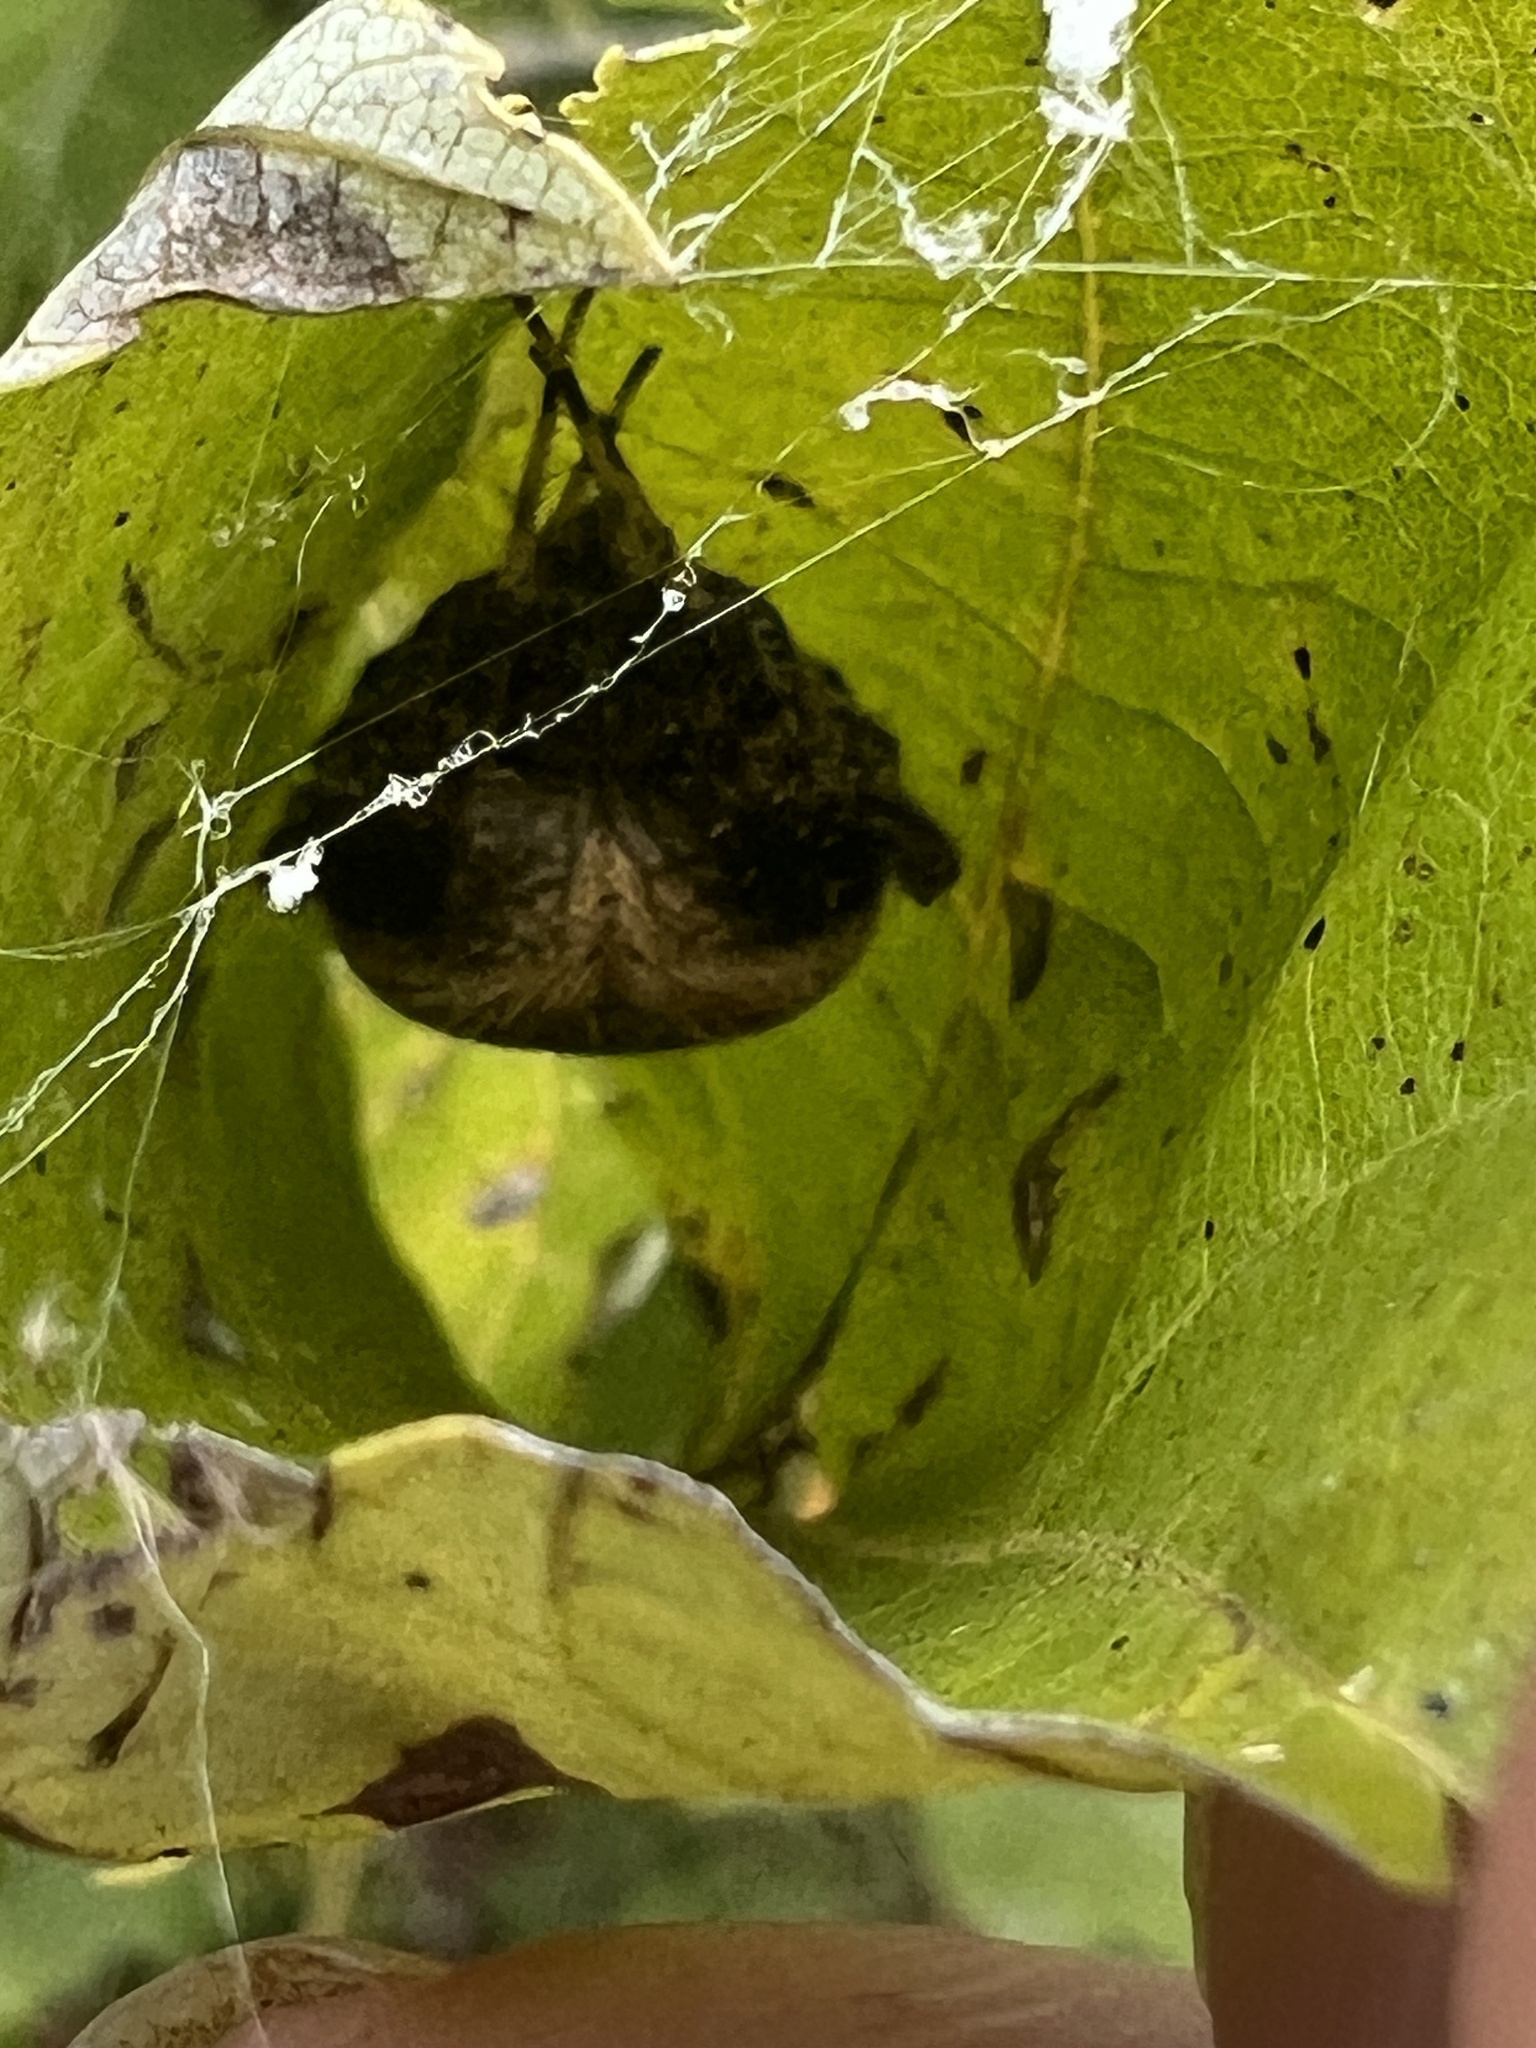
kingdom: Animalia
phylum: Arthropoda
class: Arachnida
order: Araneae
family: Araneidae
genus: Neoscona
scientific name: Neoscona crucifera
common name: Spotted orbweaver
